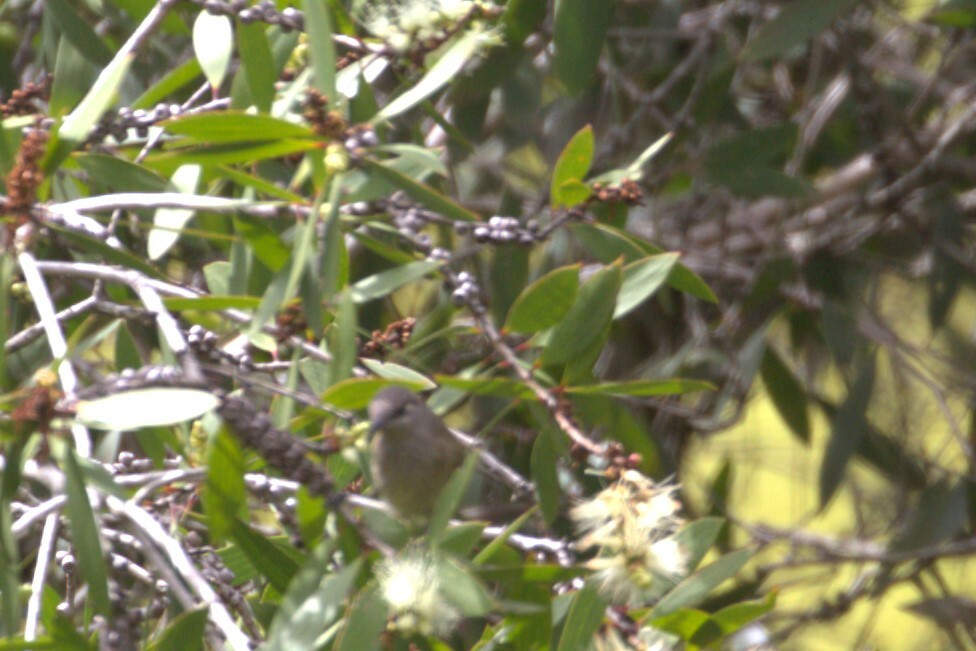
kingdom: Animalia
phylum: Chordata
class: Aves
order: Passeriformes
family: Meliphagidae
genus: Lichmera
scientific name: Lichmera indistincta
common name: Brown honeyeater
